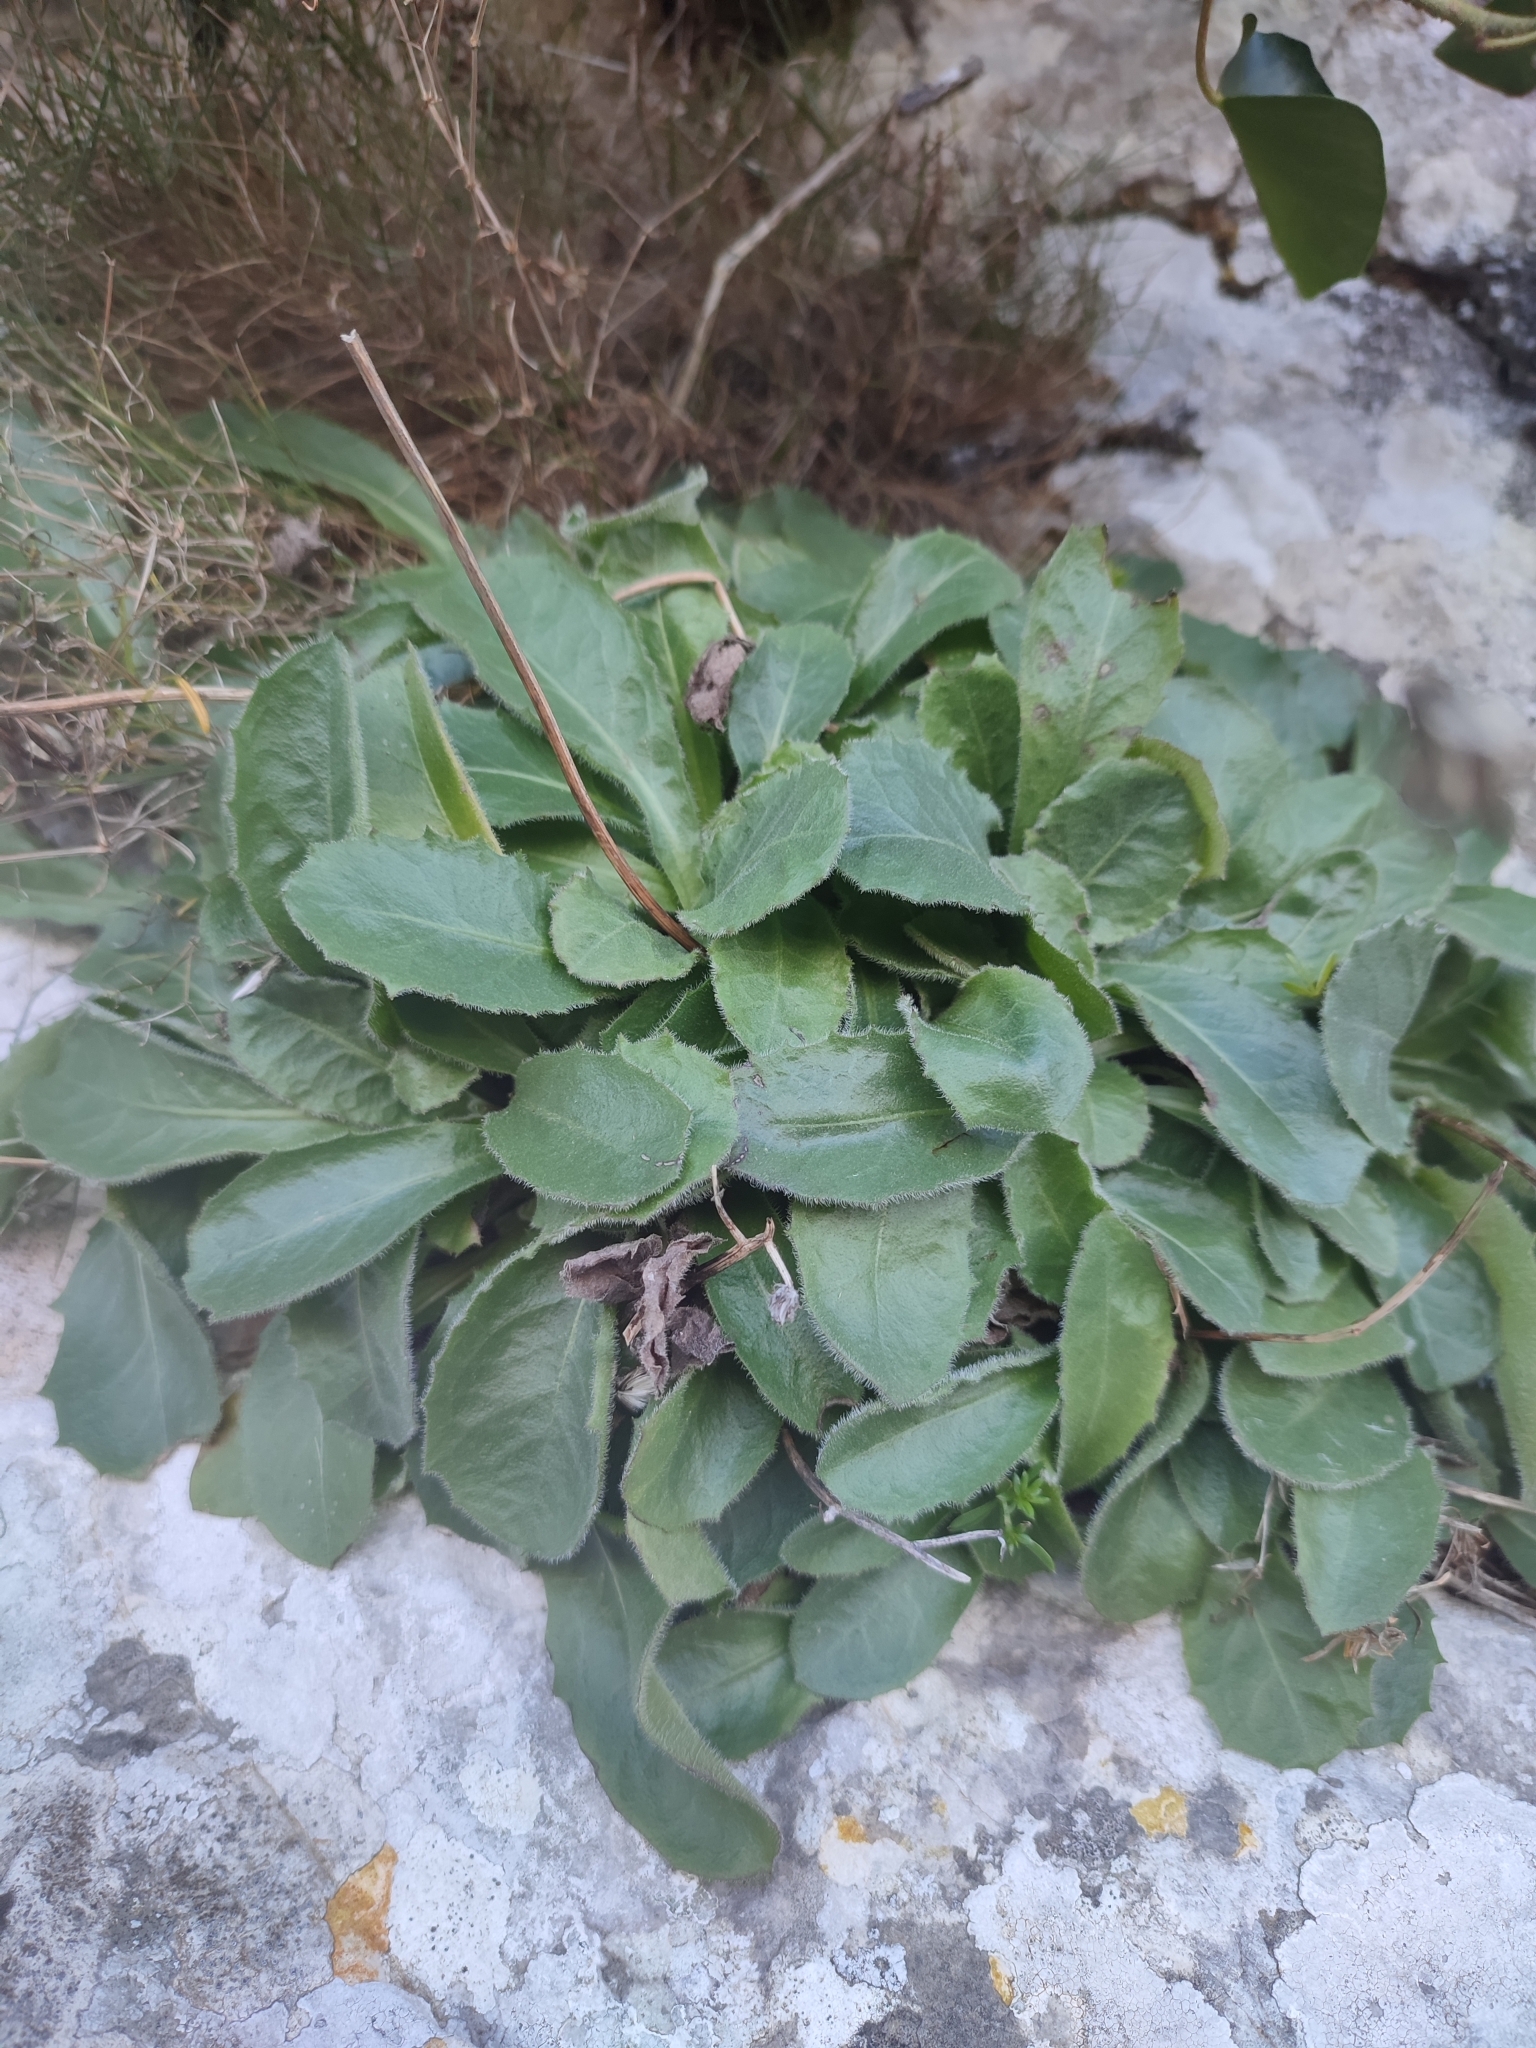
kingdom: Plantae
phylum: Tracheophyta
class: Magnoliopsida
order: Asterales
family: Asteraceae
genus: Crepis
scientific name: Crepis triasii
